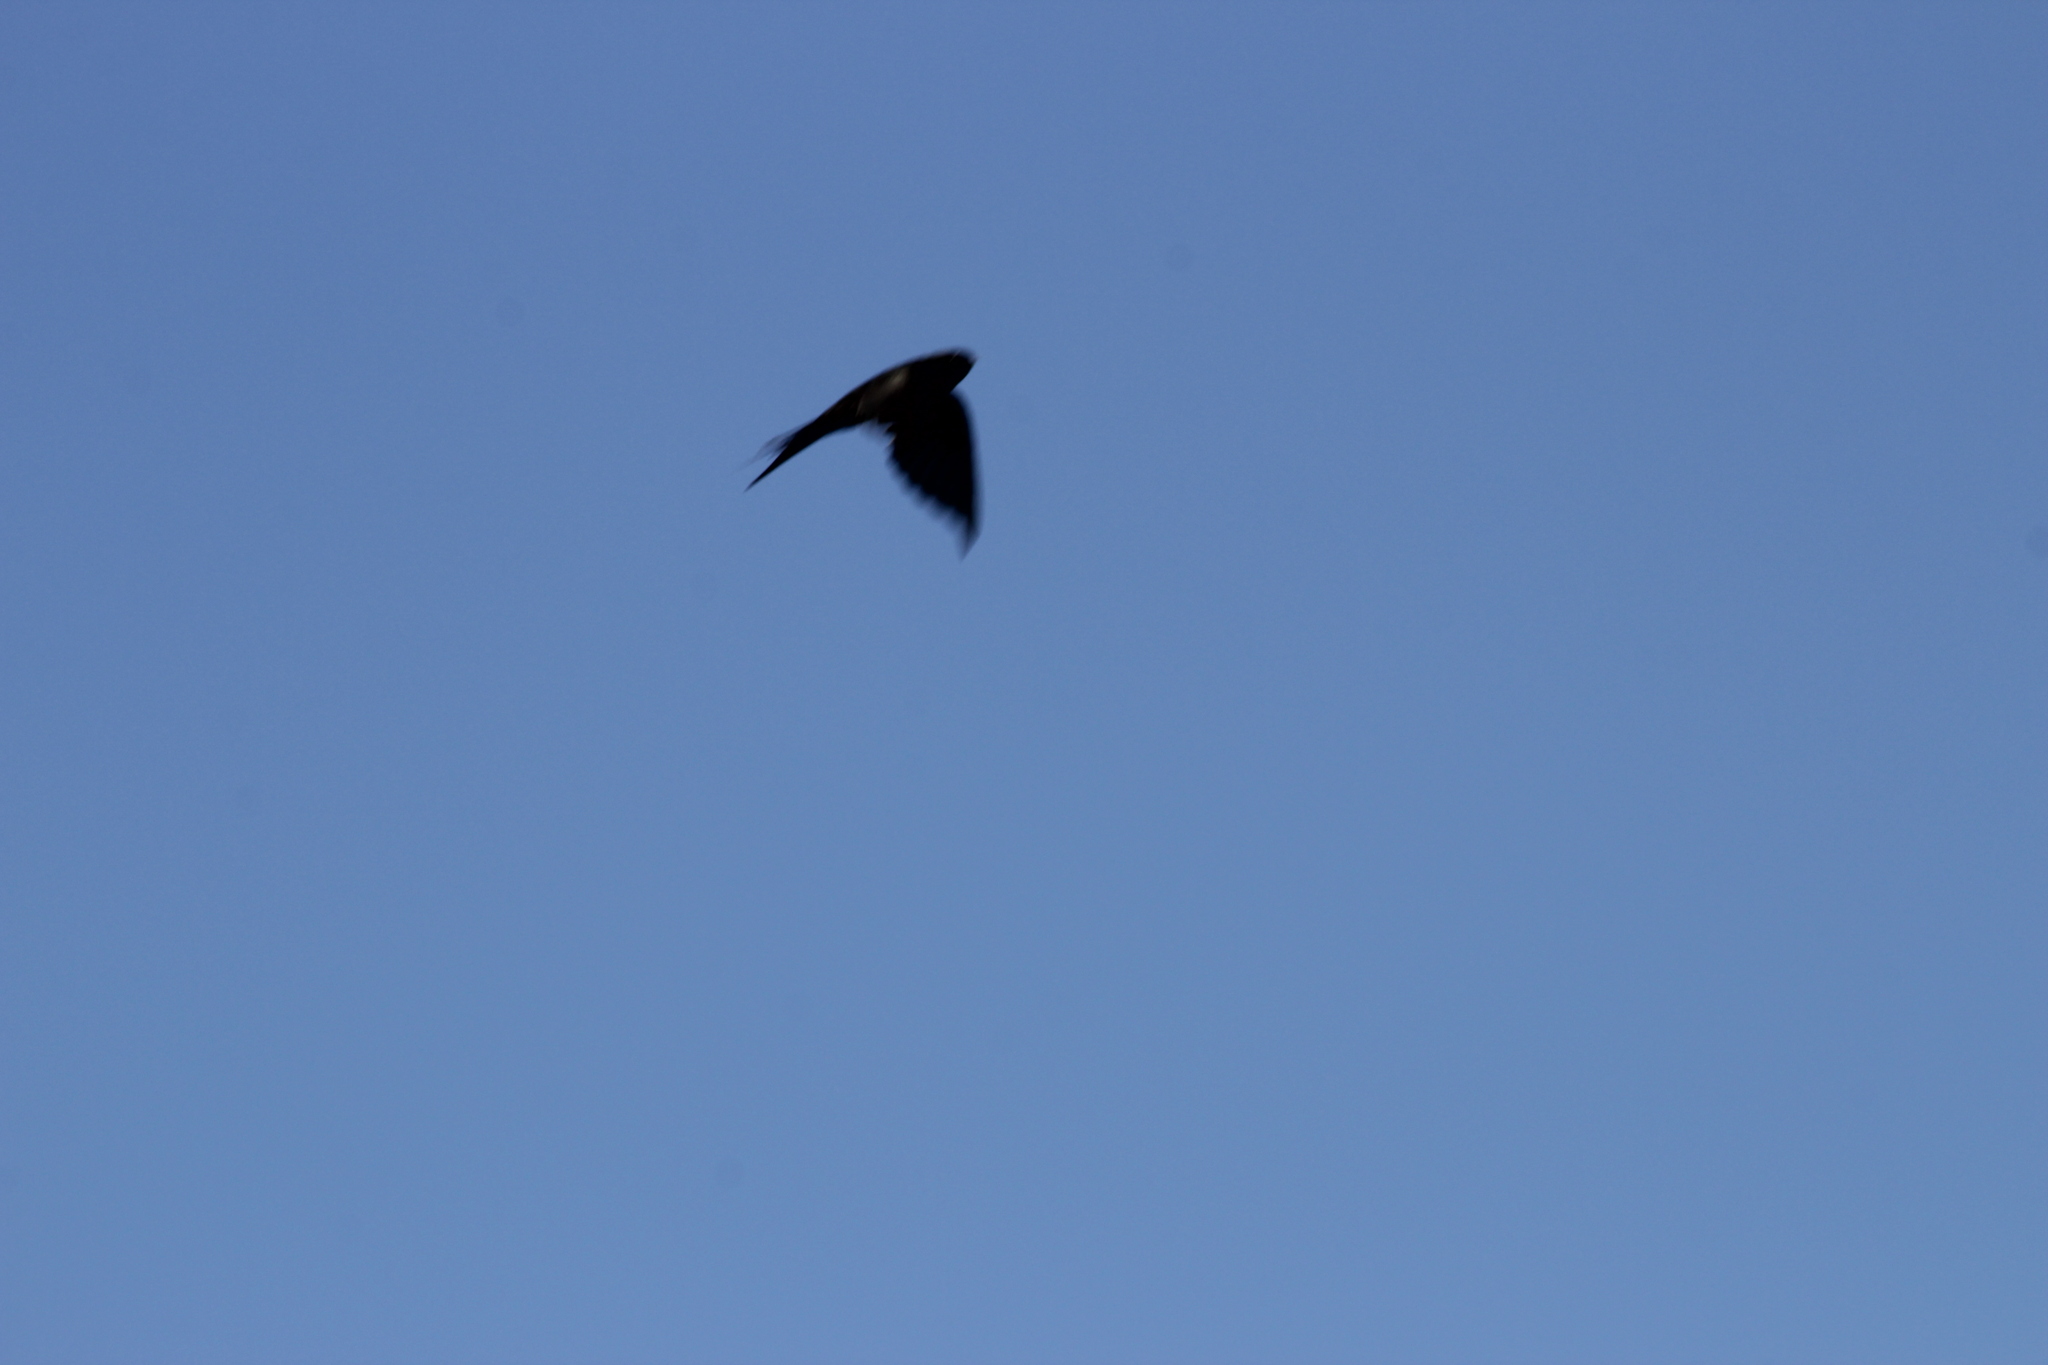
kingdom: Animalia
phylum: Chordata
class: Aves
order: Passeriformes
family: Hirundinidae
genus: Psalidoprocne
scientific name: Psalidoprocne pristoptera
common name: Black saw-wing
